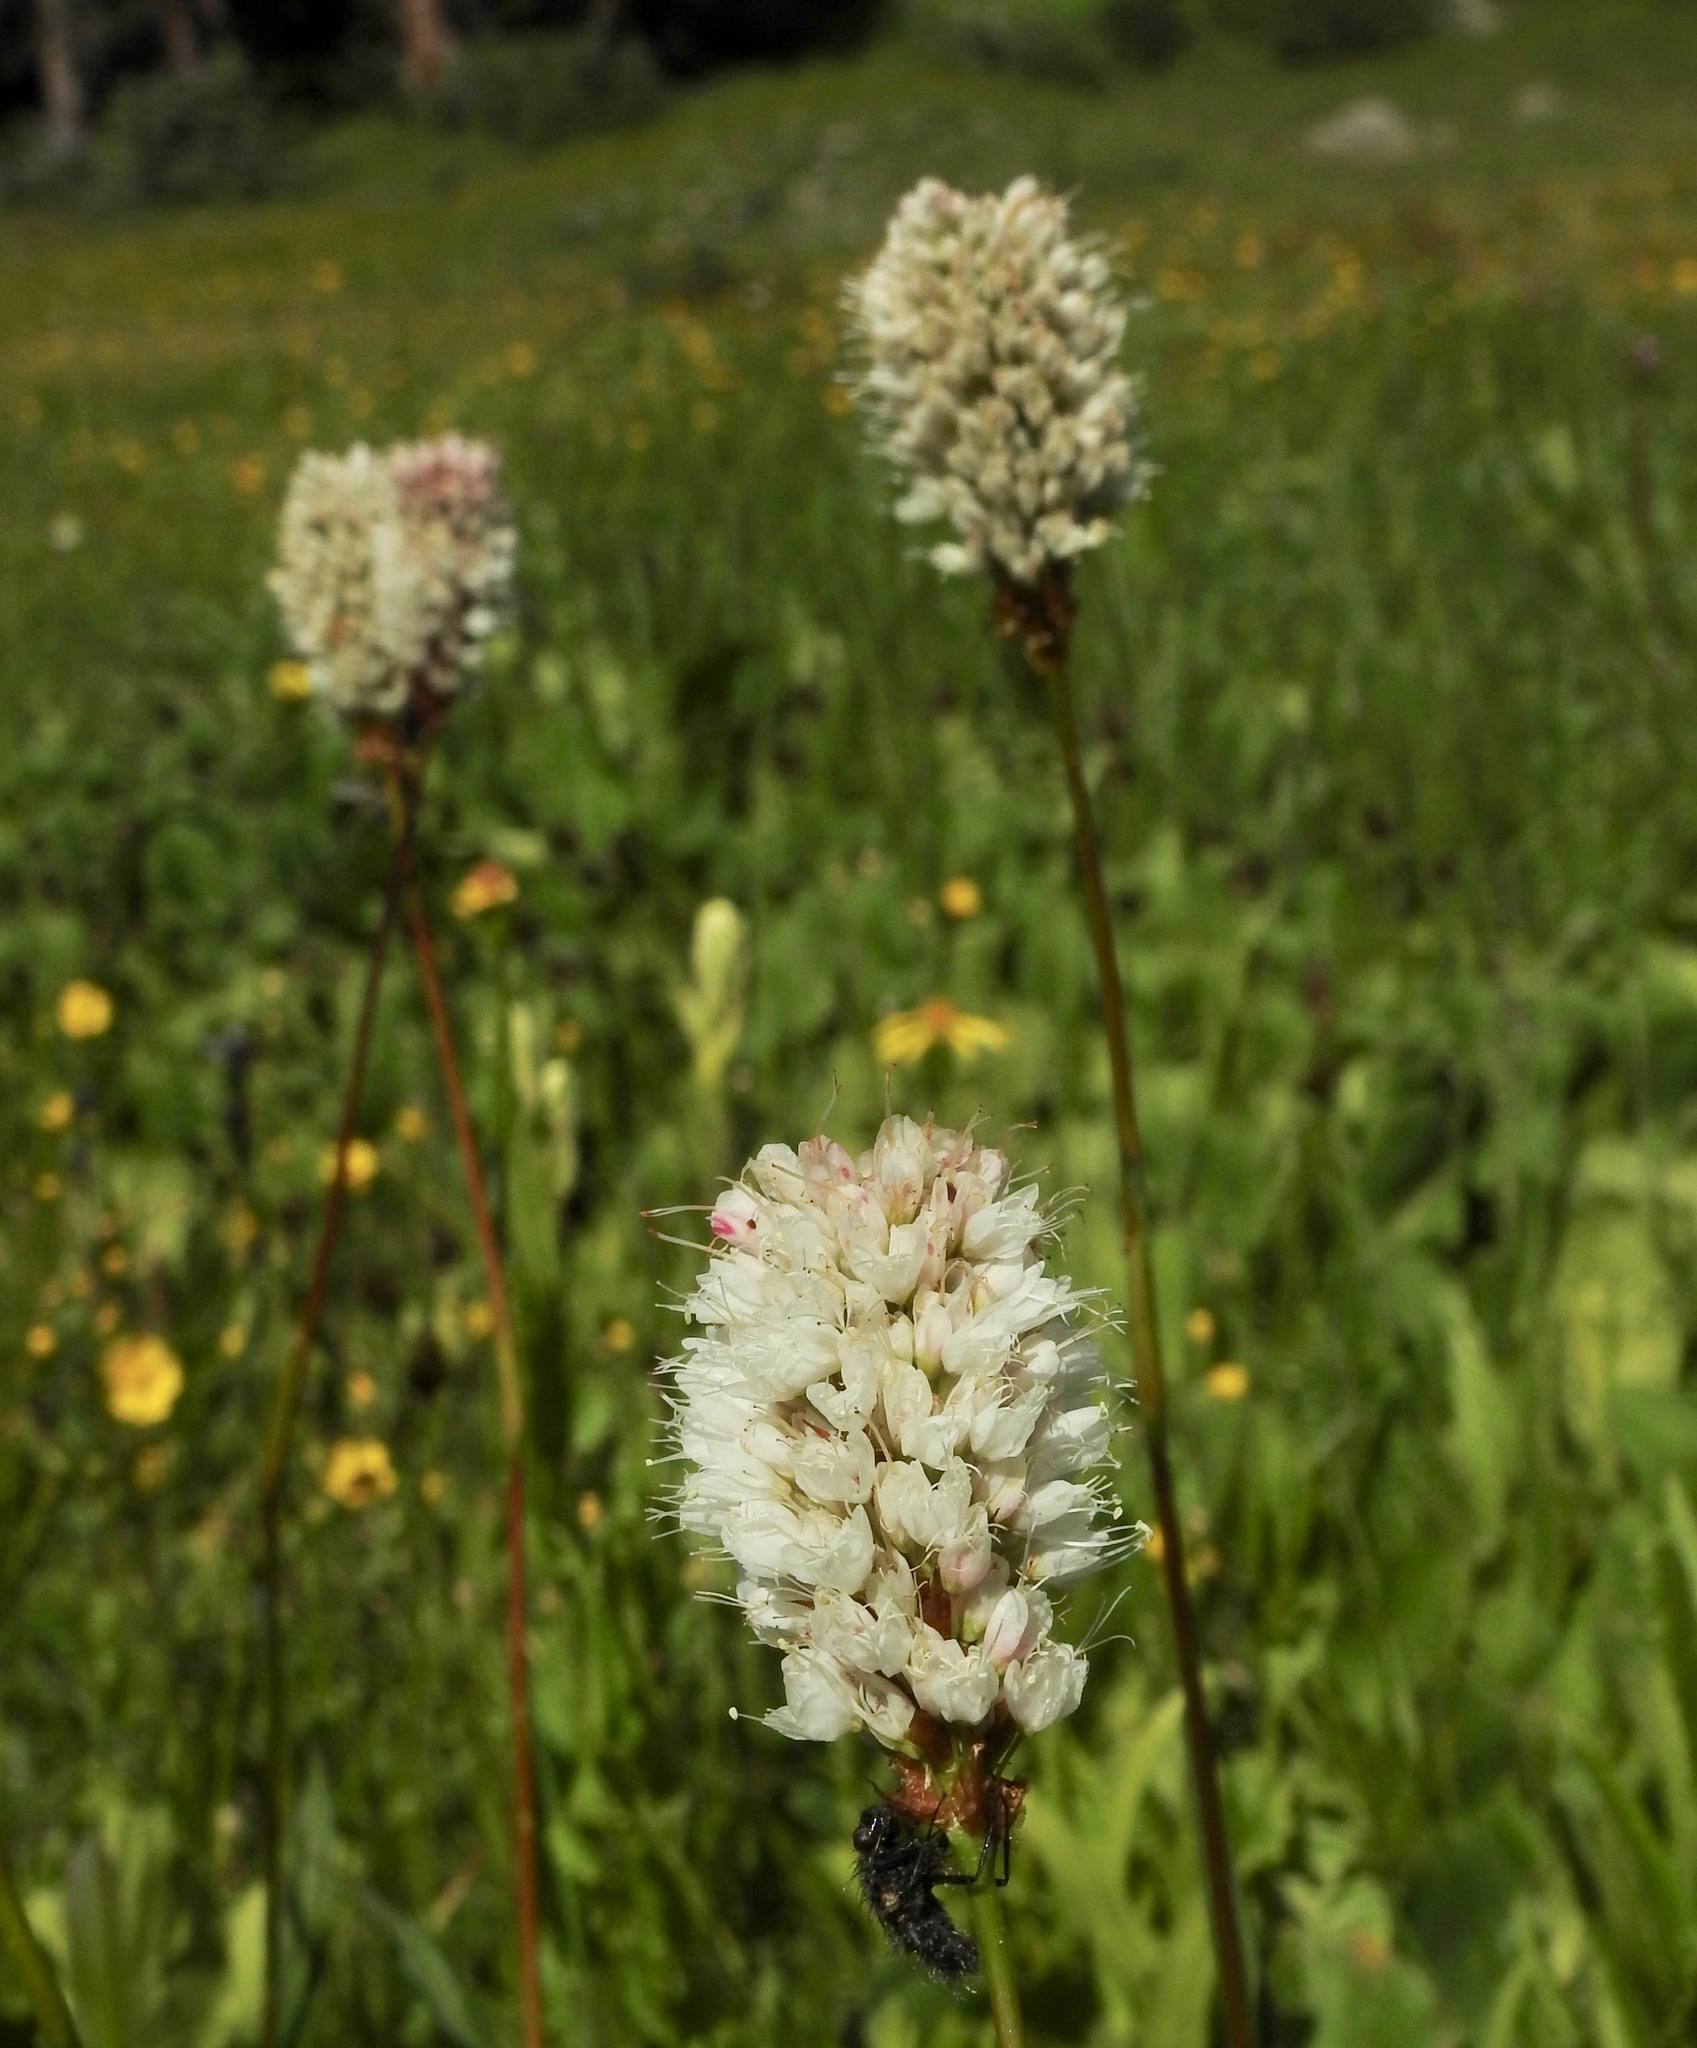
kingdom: Plantae
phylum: Tracheophyta
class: Magnoliopsida
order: Caryophyllales
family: Polygonaceae
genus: Bistorta
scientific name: Bistorta bistortoides
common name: American bistort
